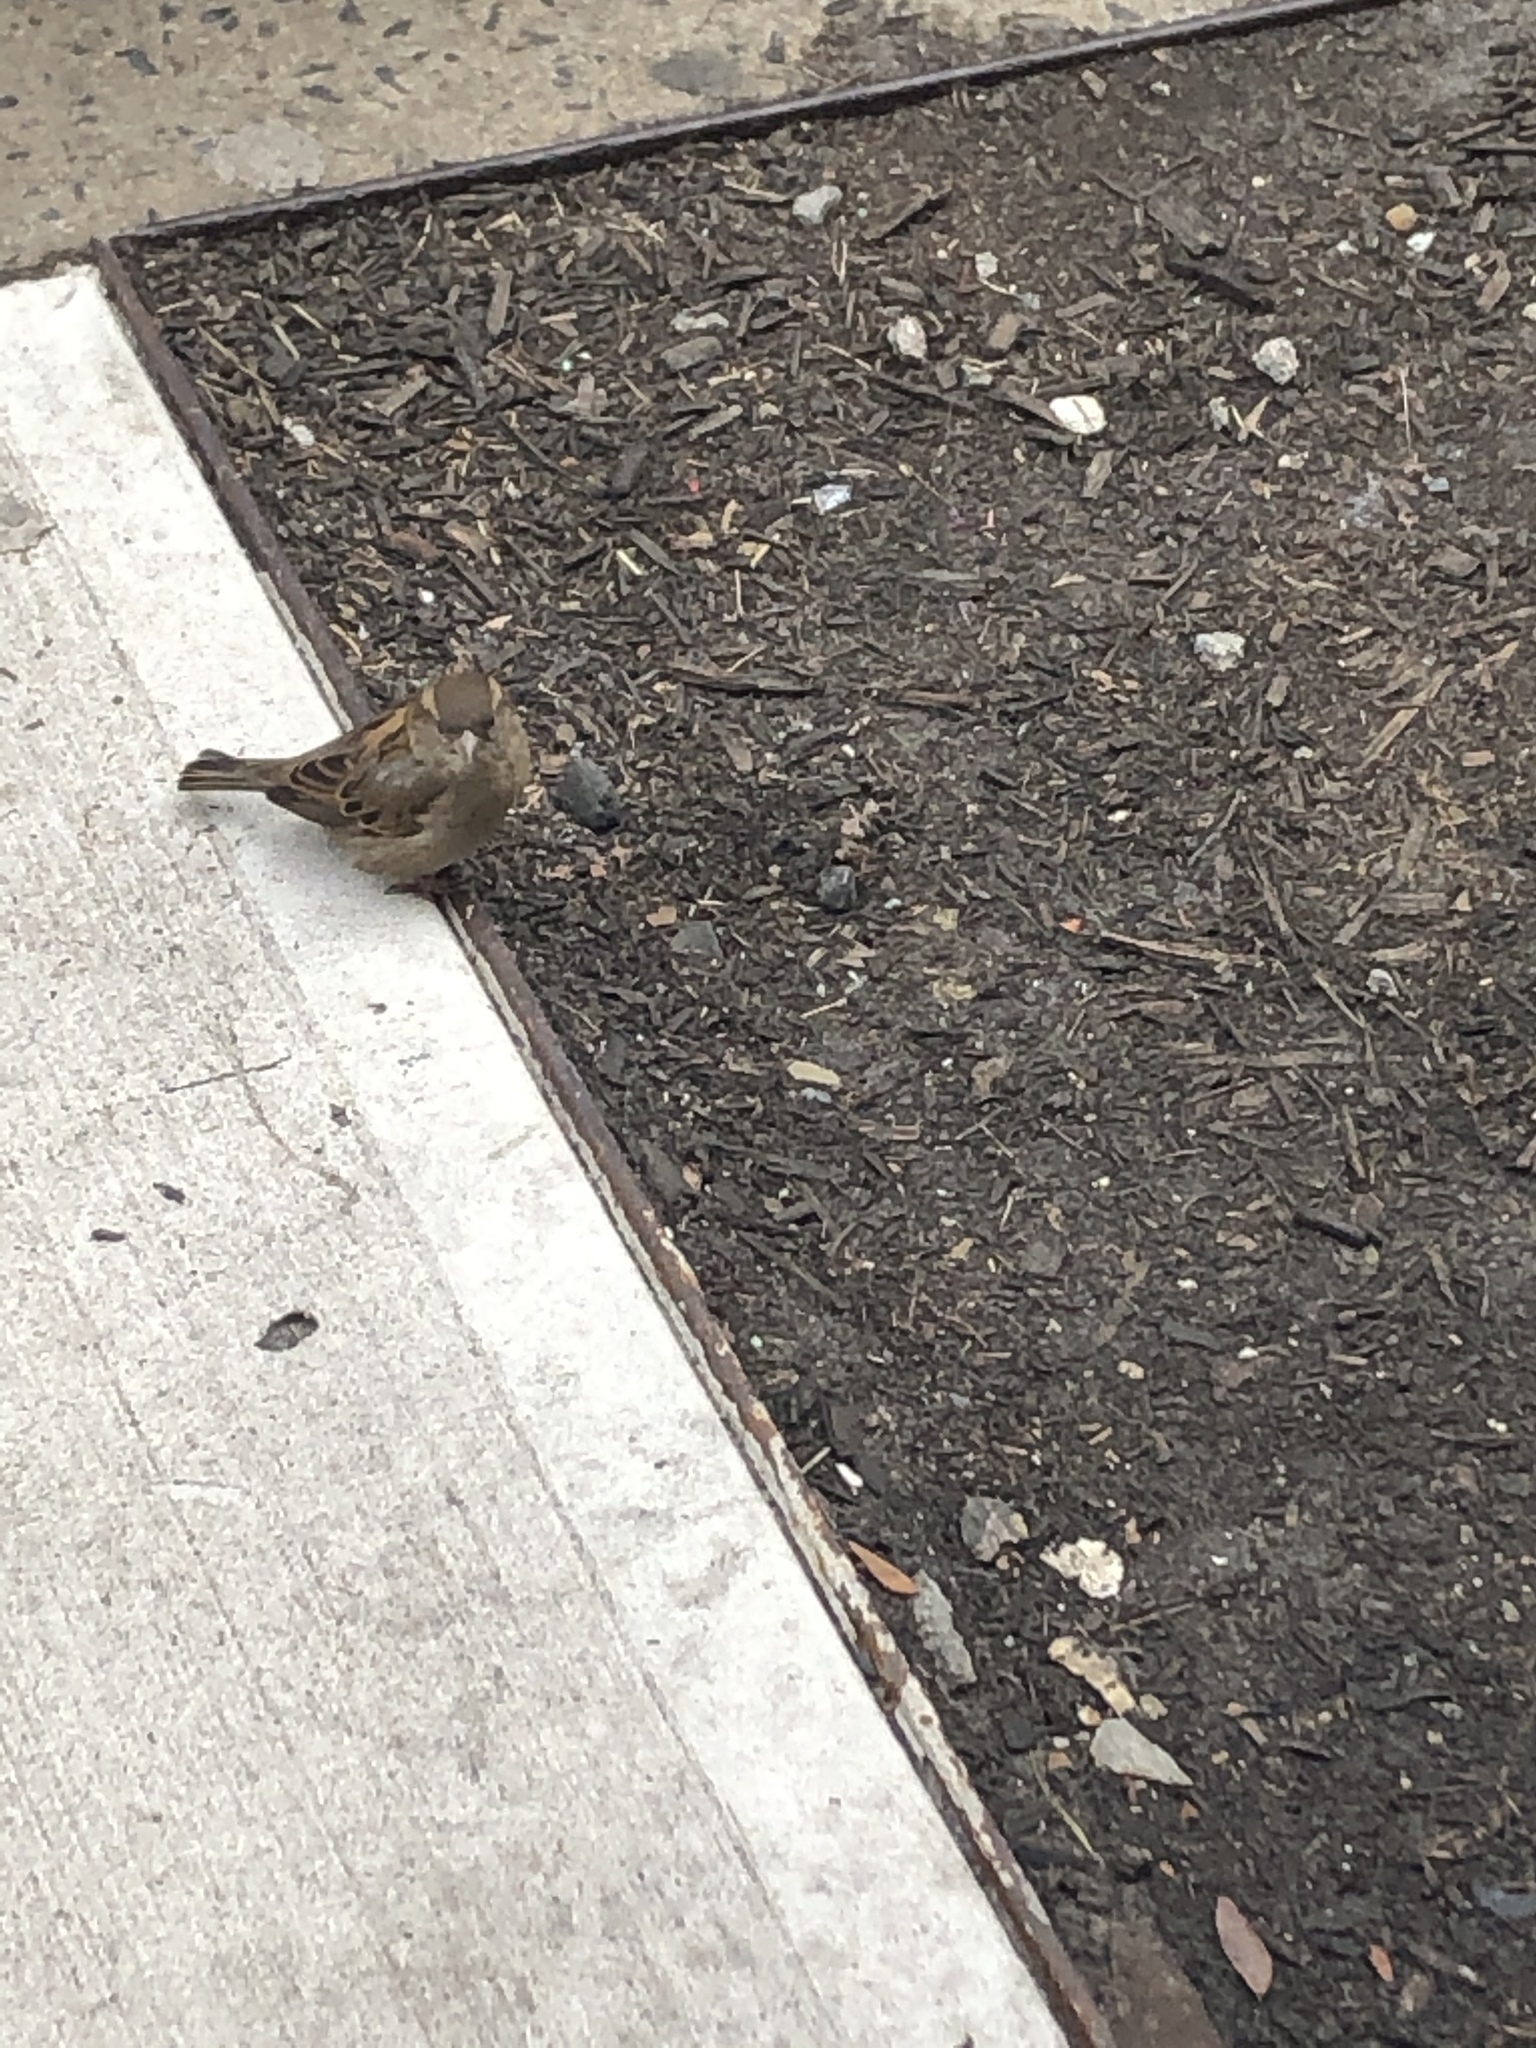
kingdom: Animalia
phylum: Chordata
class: Aves
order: Passeriformes
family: Passeridae
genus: Passer
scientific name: Passer domesticus
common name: House sparrow
